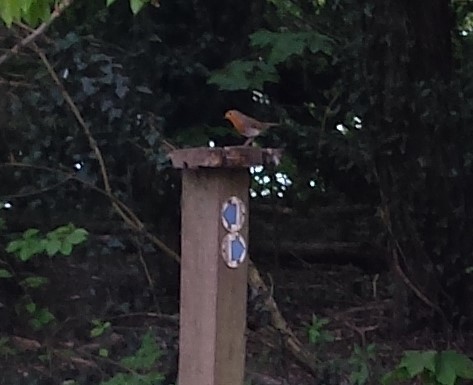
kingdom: Animalia
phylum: Chordata
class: Aves
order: Passeriformes
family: Muscicapidae
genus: Erithacus
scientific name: Erithacus rubecula
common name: European robin
